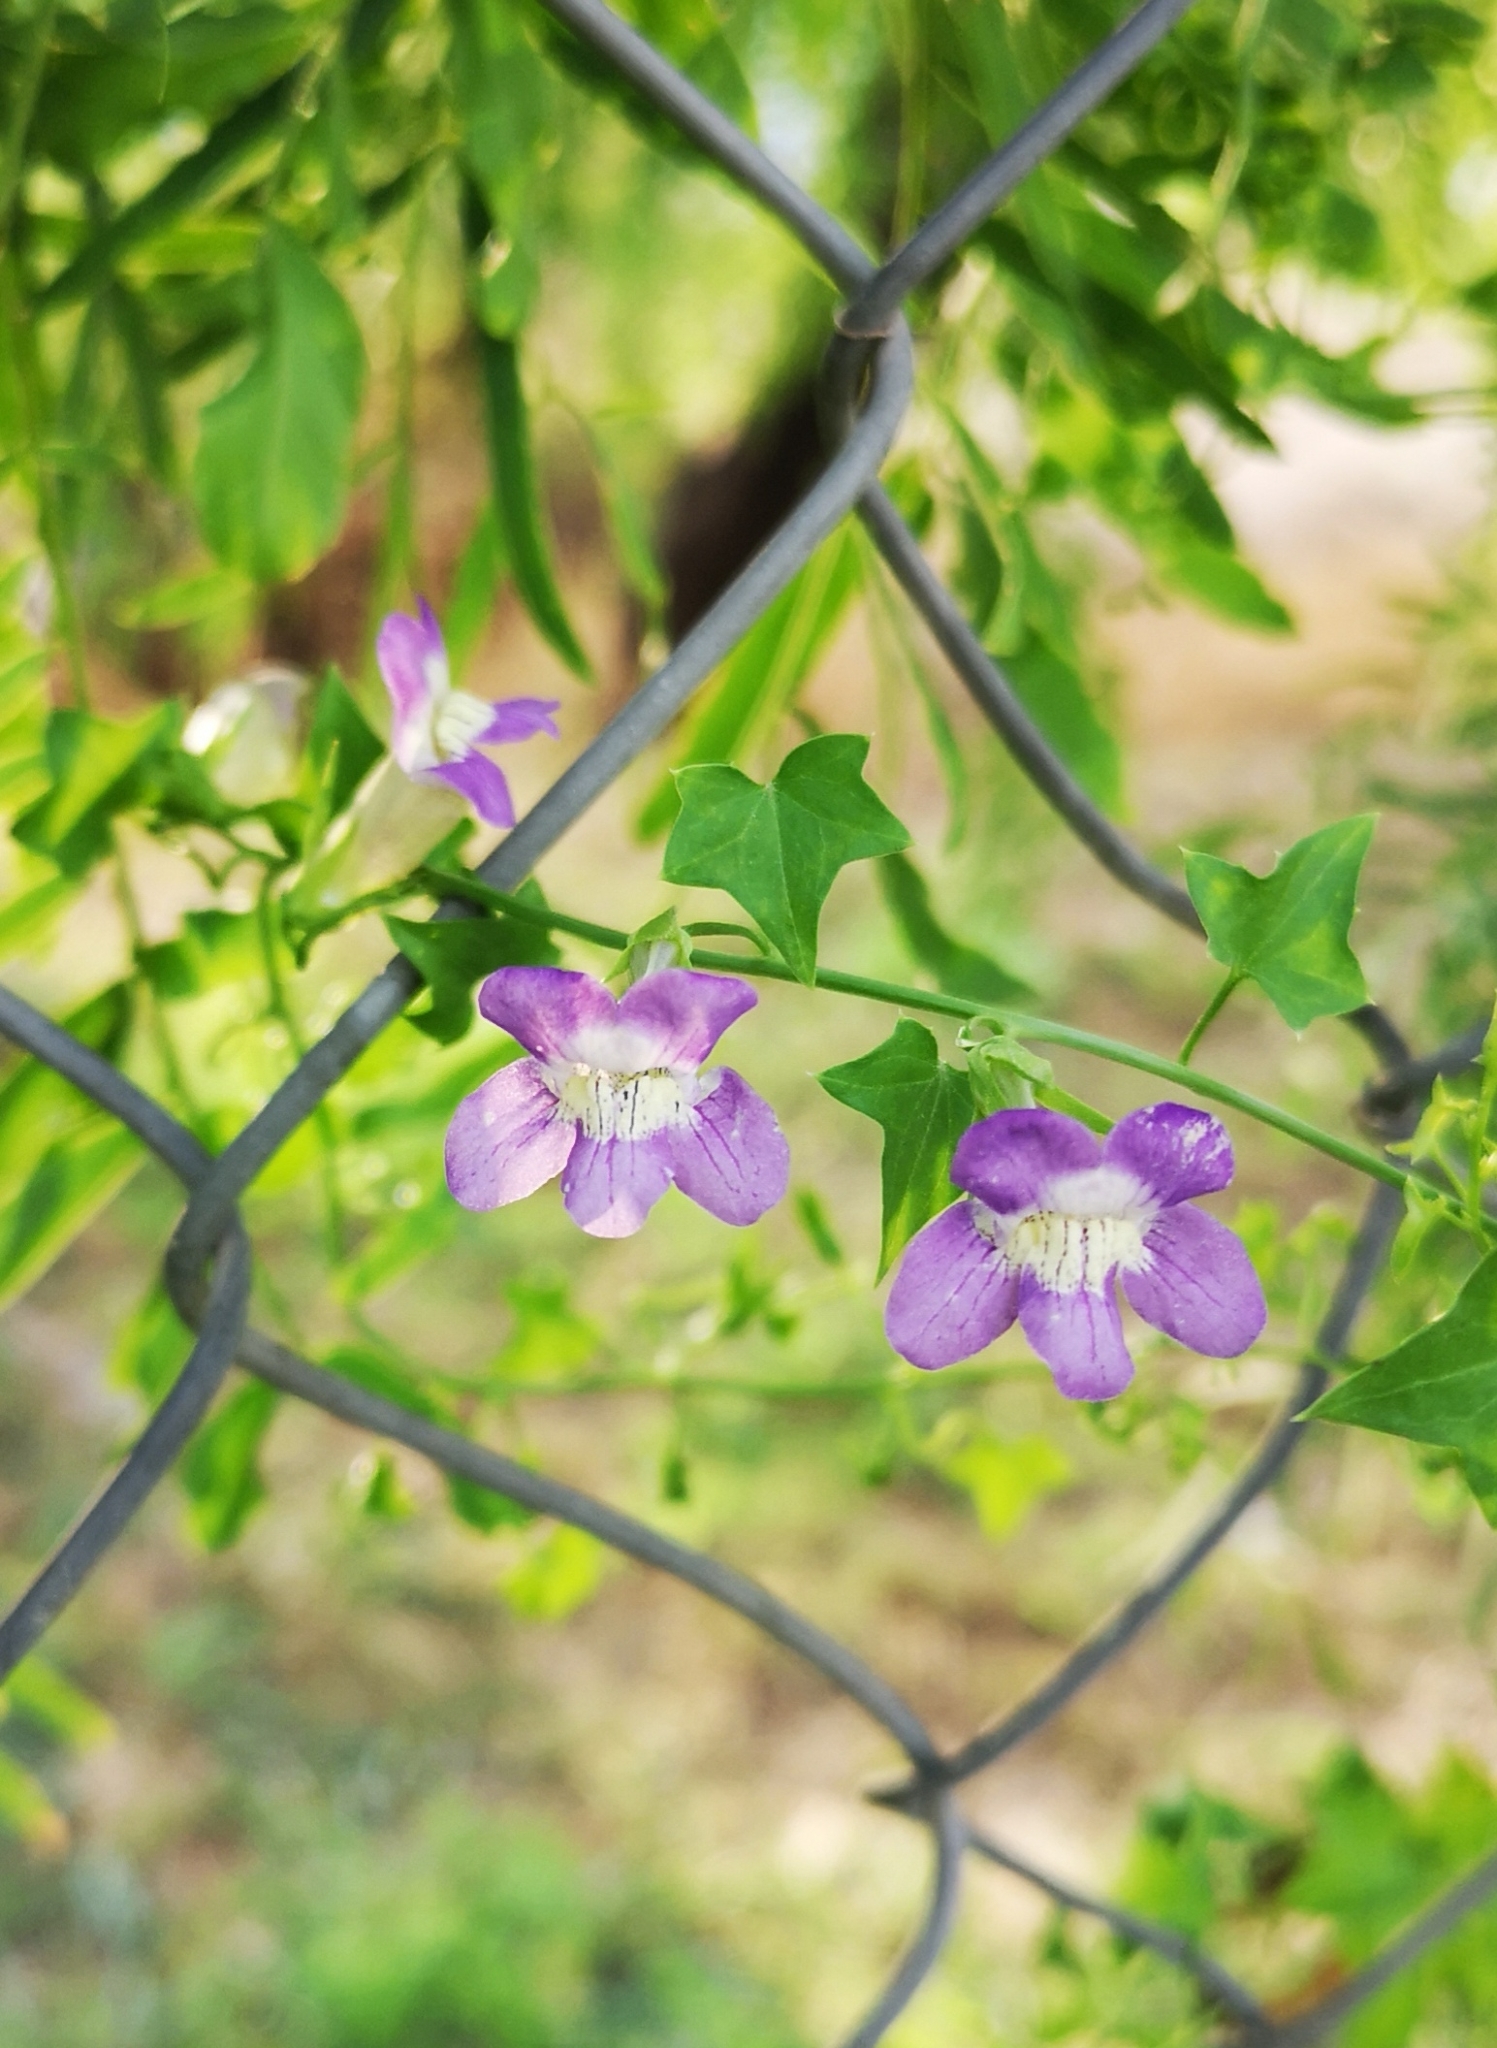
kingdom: Plantae
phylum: Tracheophyta
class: Magnoliopsida
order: Lamiales
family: Plantaginaceae
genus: Maurandella
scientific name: Maurandella antirrhiniflora
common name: Violet twining-snapdragon
